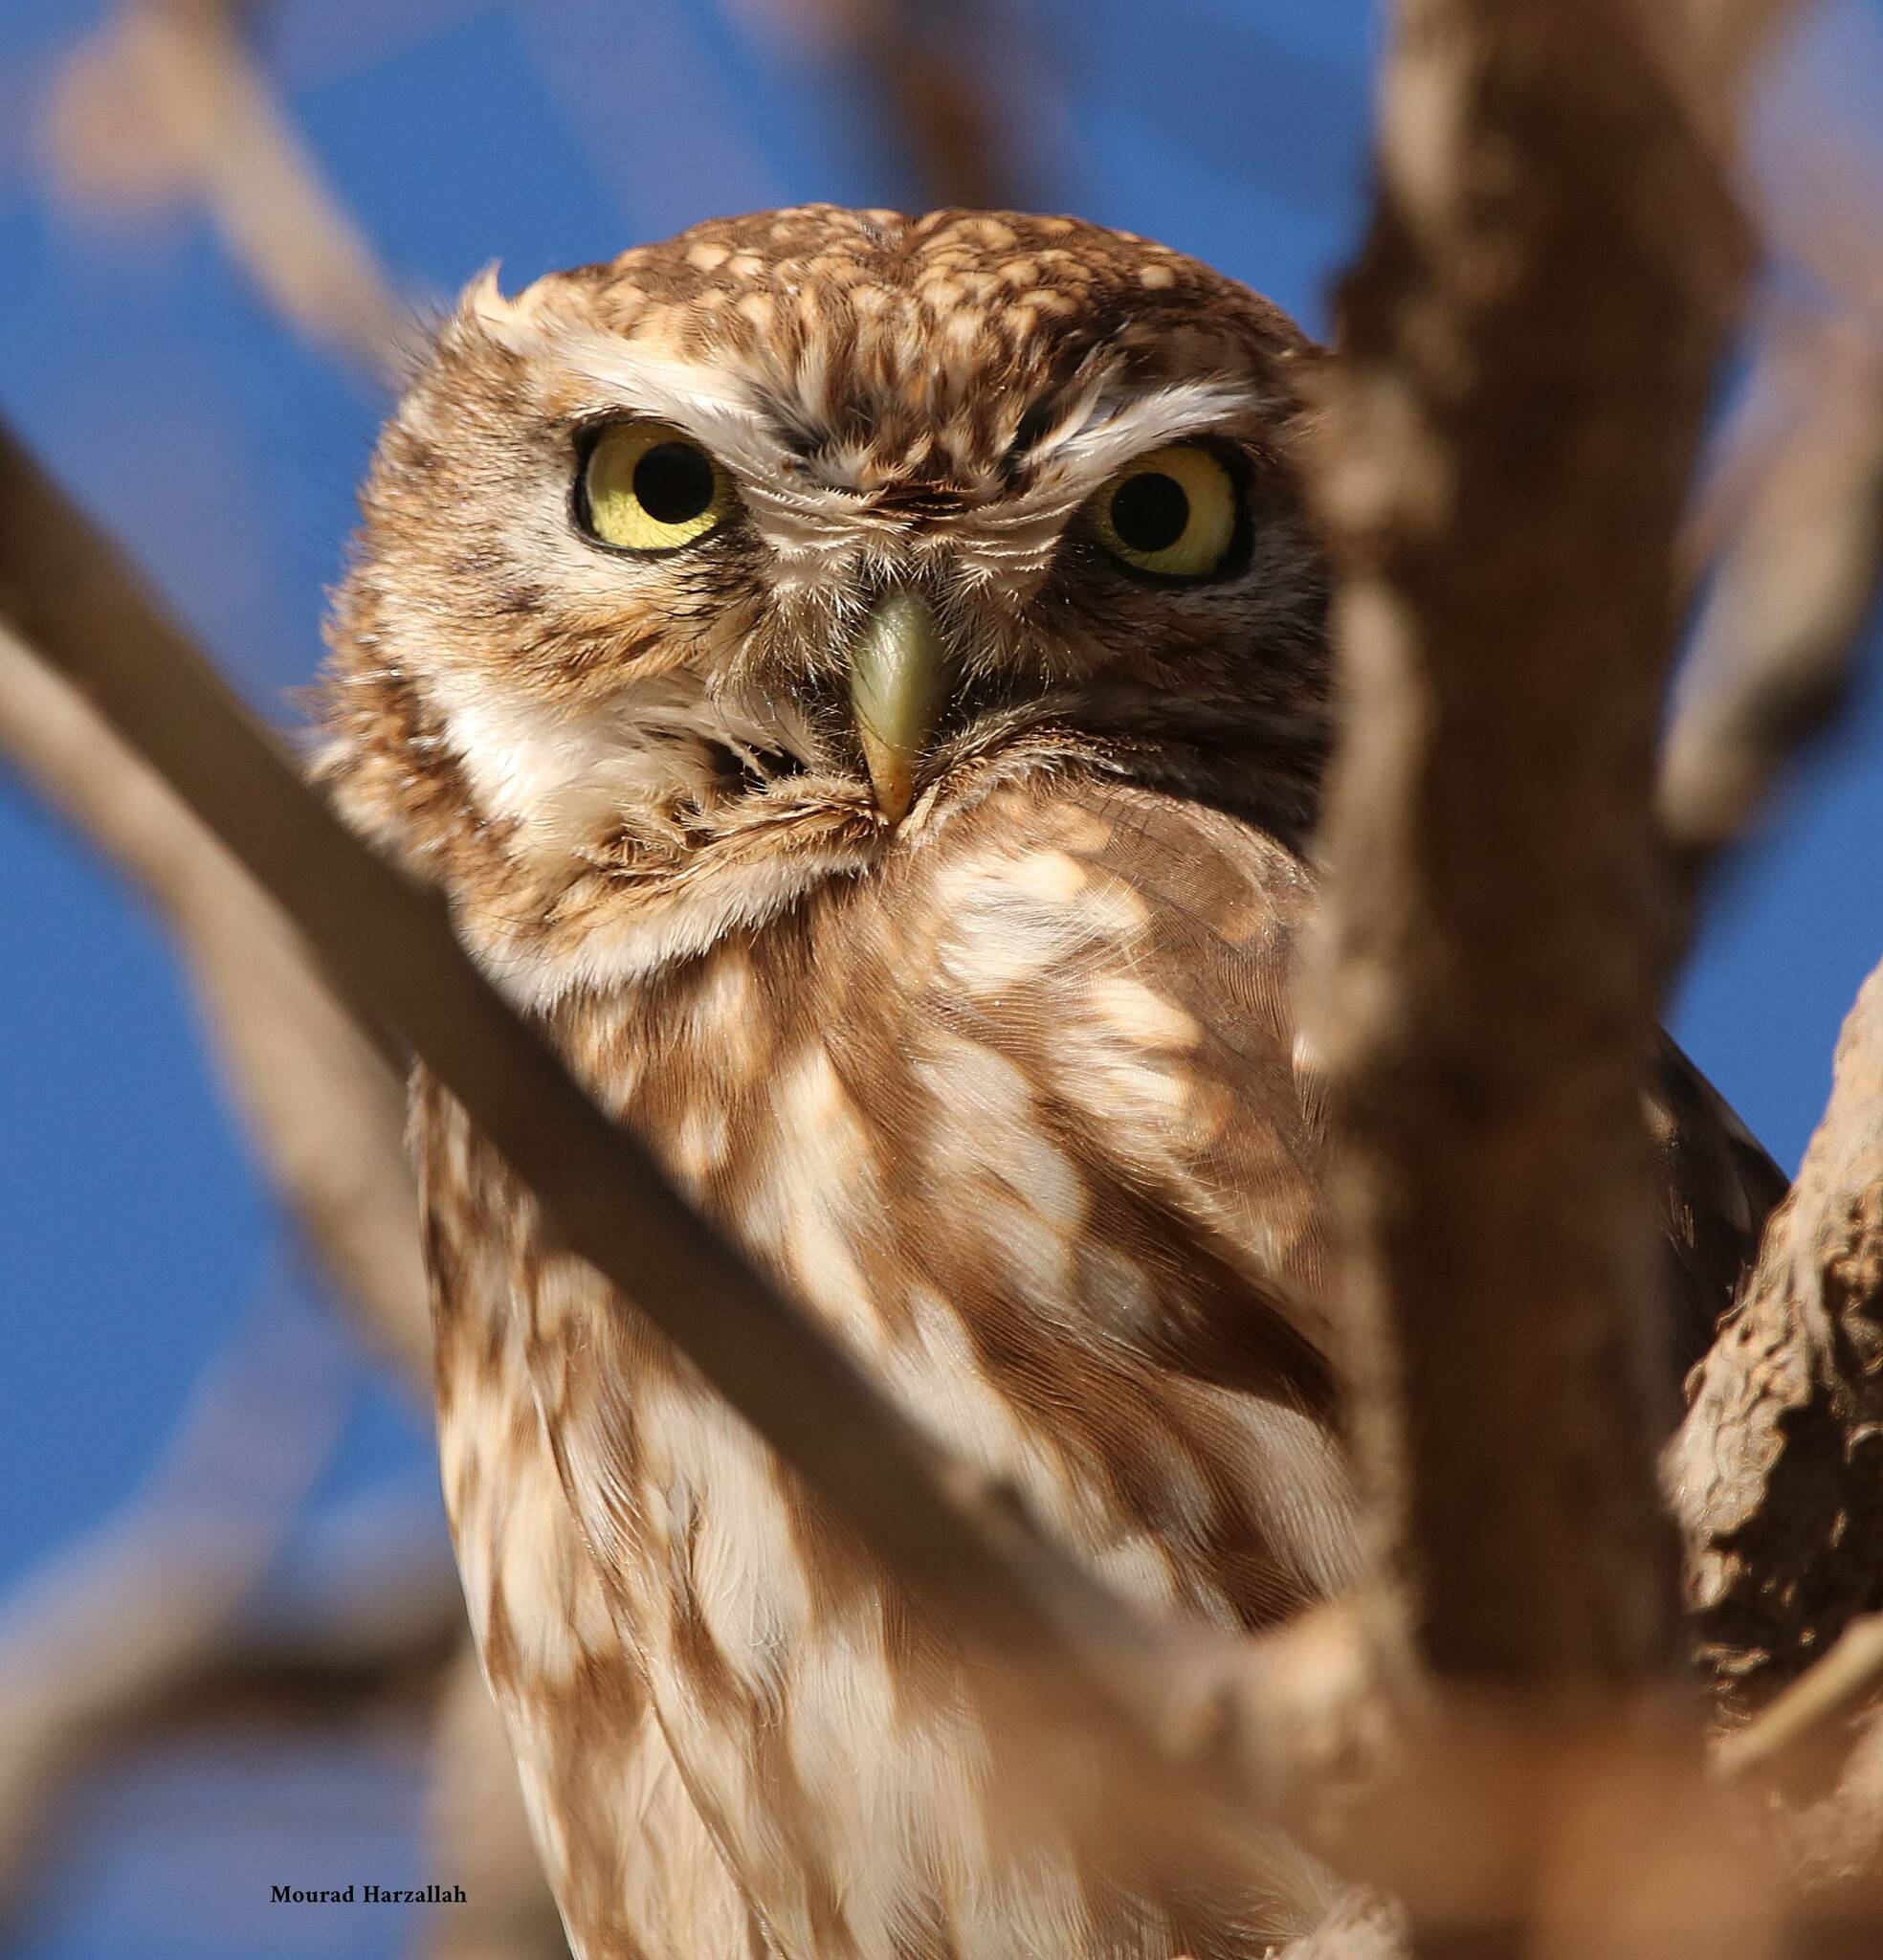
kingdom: Animalia
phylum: Chordata
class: Aves
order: Strigiformes
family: Strigidae
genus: Athene
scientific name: Athene noctua
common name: Little owl
